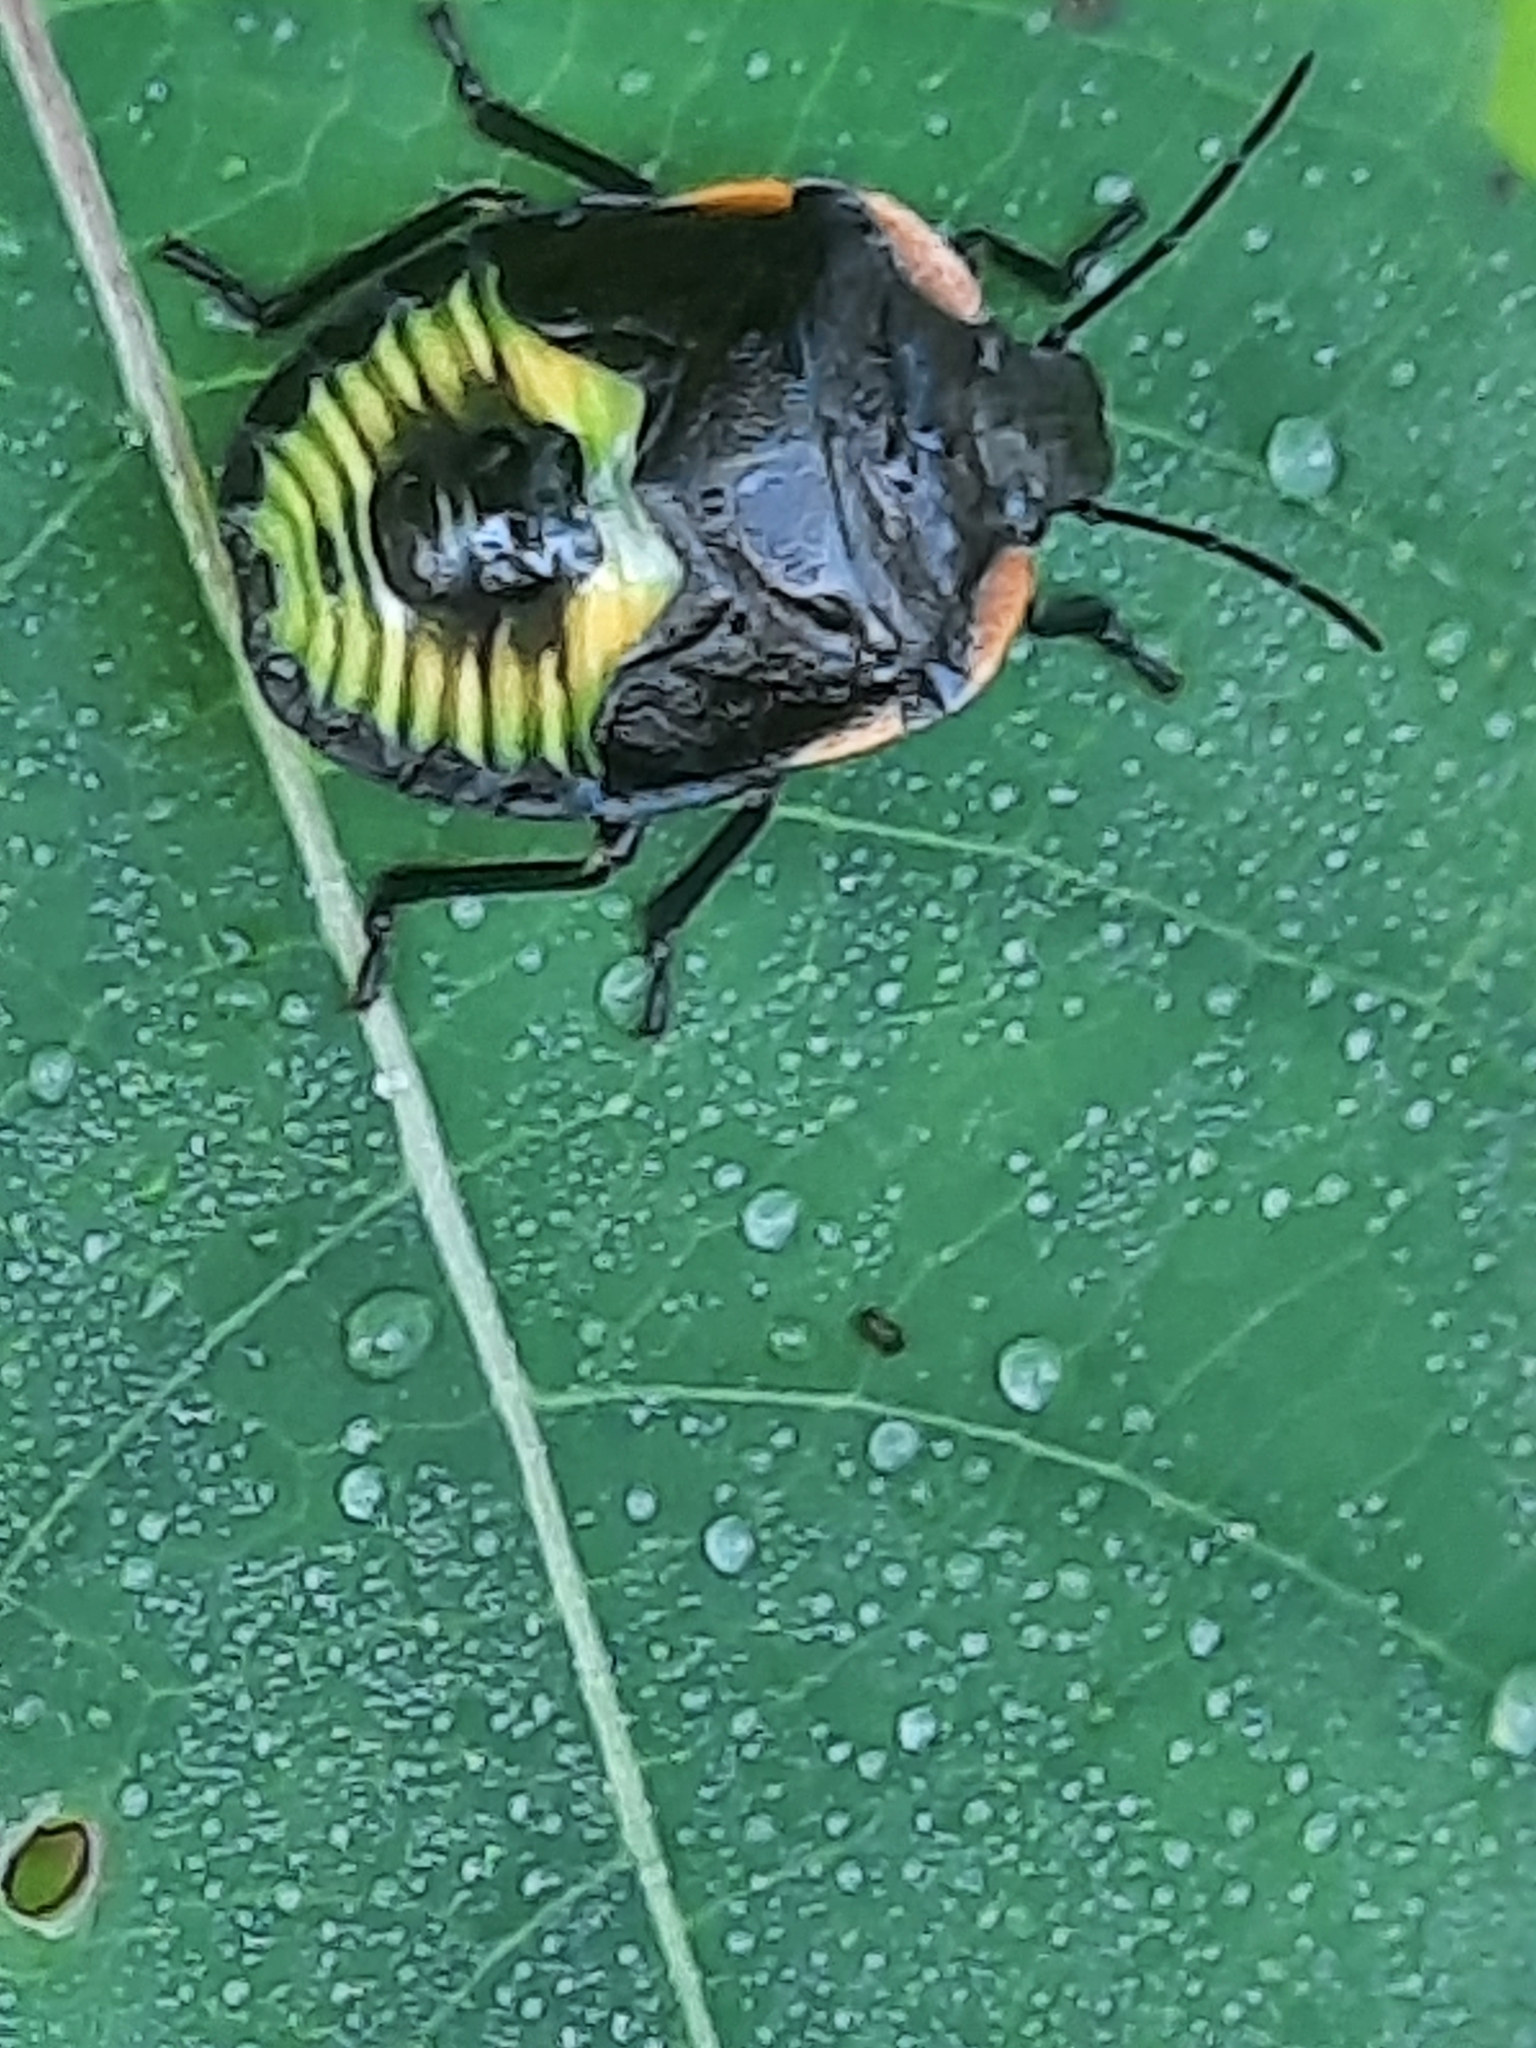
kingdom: Animalia
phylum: Arthropoda
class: Insecta
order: Hemiptera
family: Pentatomidae
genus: Chinavia
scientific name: Chinavia hilaris
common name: Green stink bug
